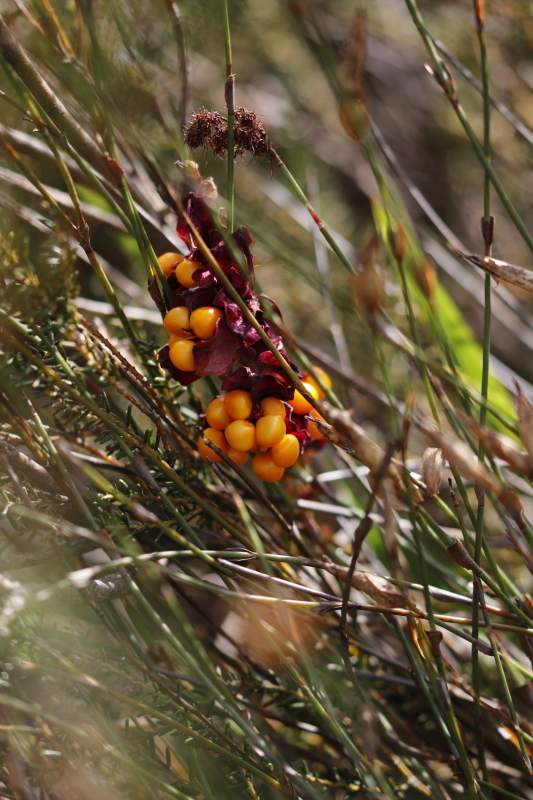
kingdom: Plantae
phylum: Tracheophyta
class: Liliopsida
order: Asparagales
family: Iridaceae
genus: Chasmanthe
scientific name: Chasmanthe aethiopica
